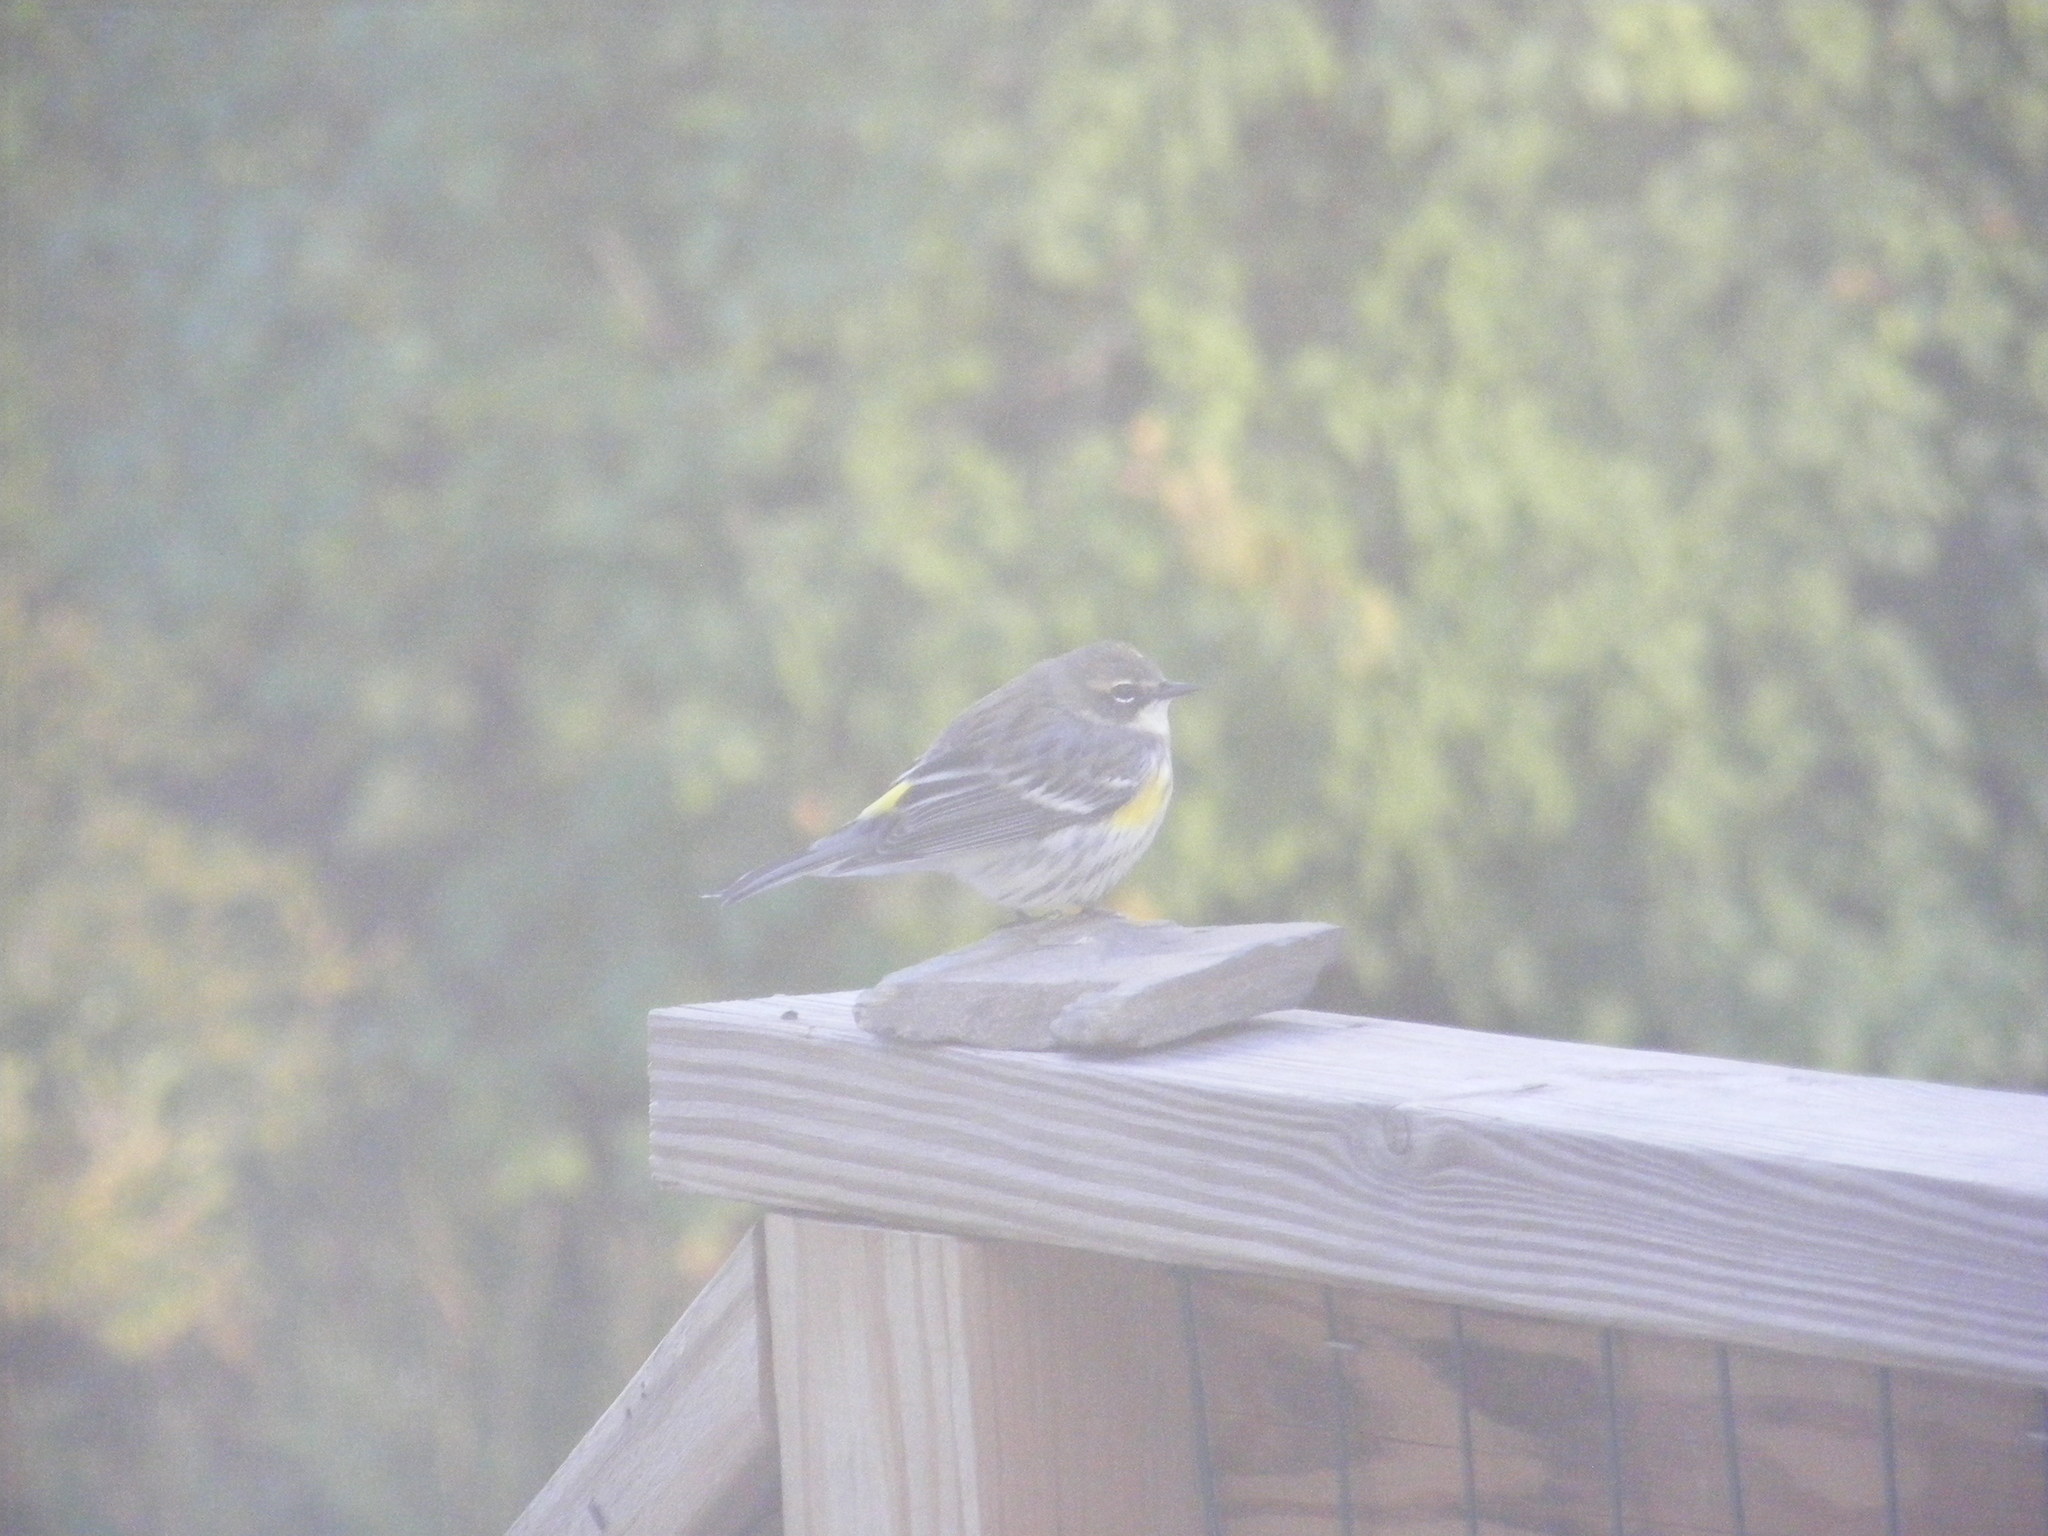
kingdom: Animalia
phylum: Chordata
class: Aves
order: Passeriformes
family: Parulidae
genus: Setophaga
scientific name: Setophaga coronata
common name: Myrtle warbler
